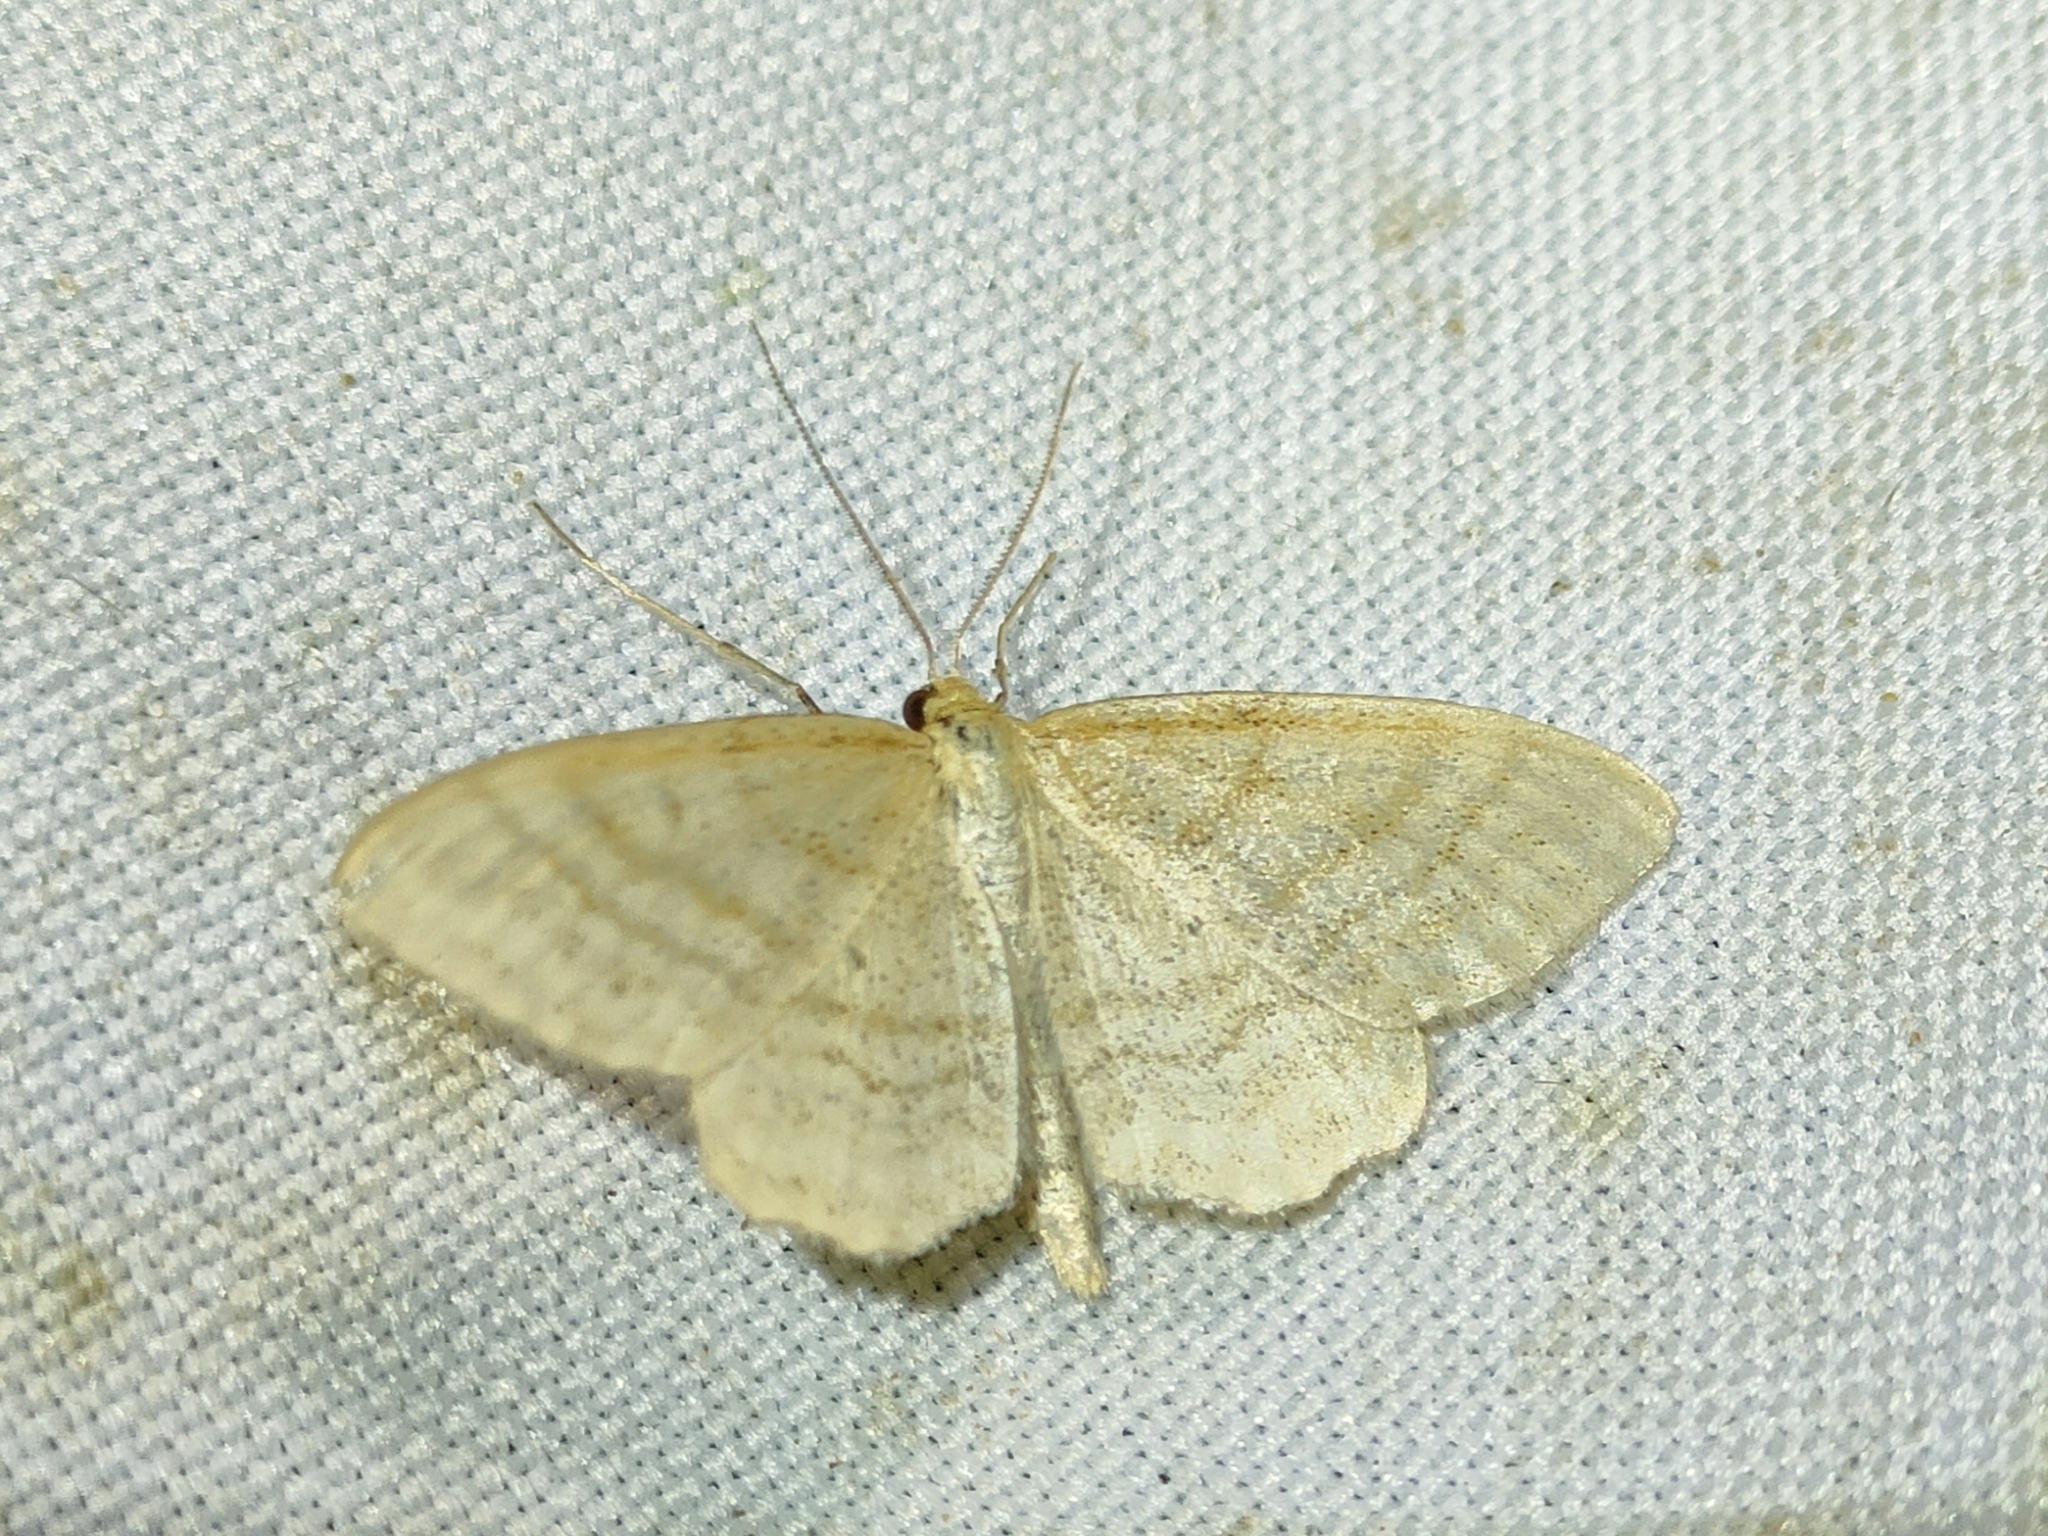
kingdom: Animalia
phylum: Arthropoda
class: Insecta
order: Lepidoptera
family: Geometridae
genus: Idaea
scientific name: Idaea antiquaria
